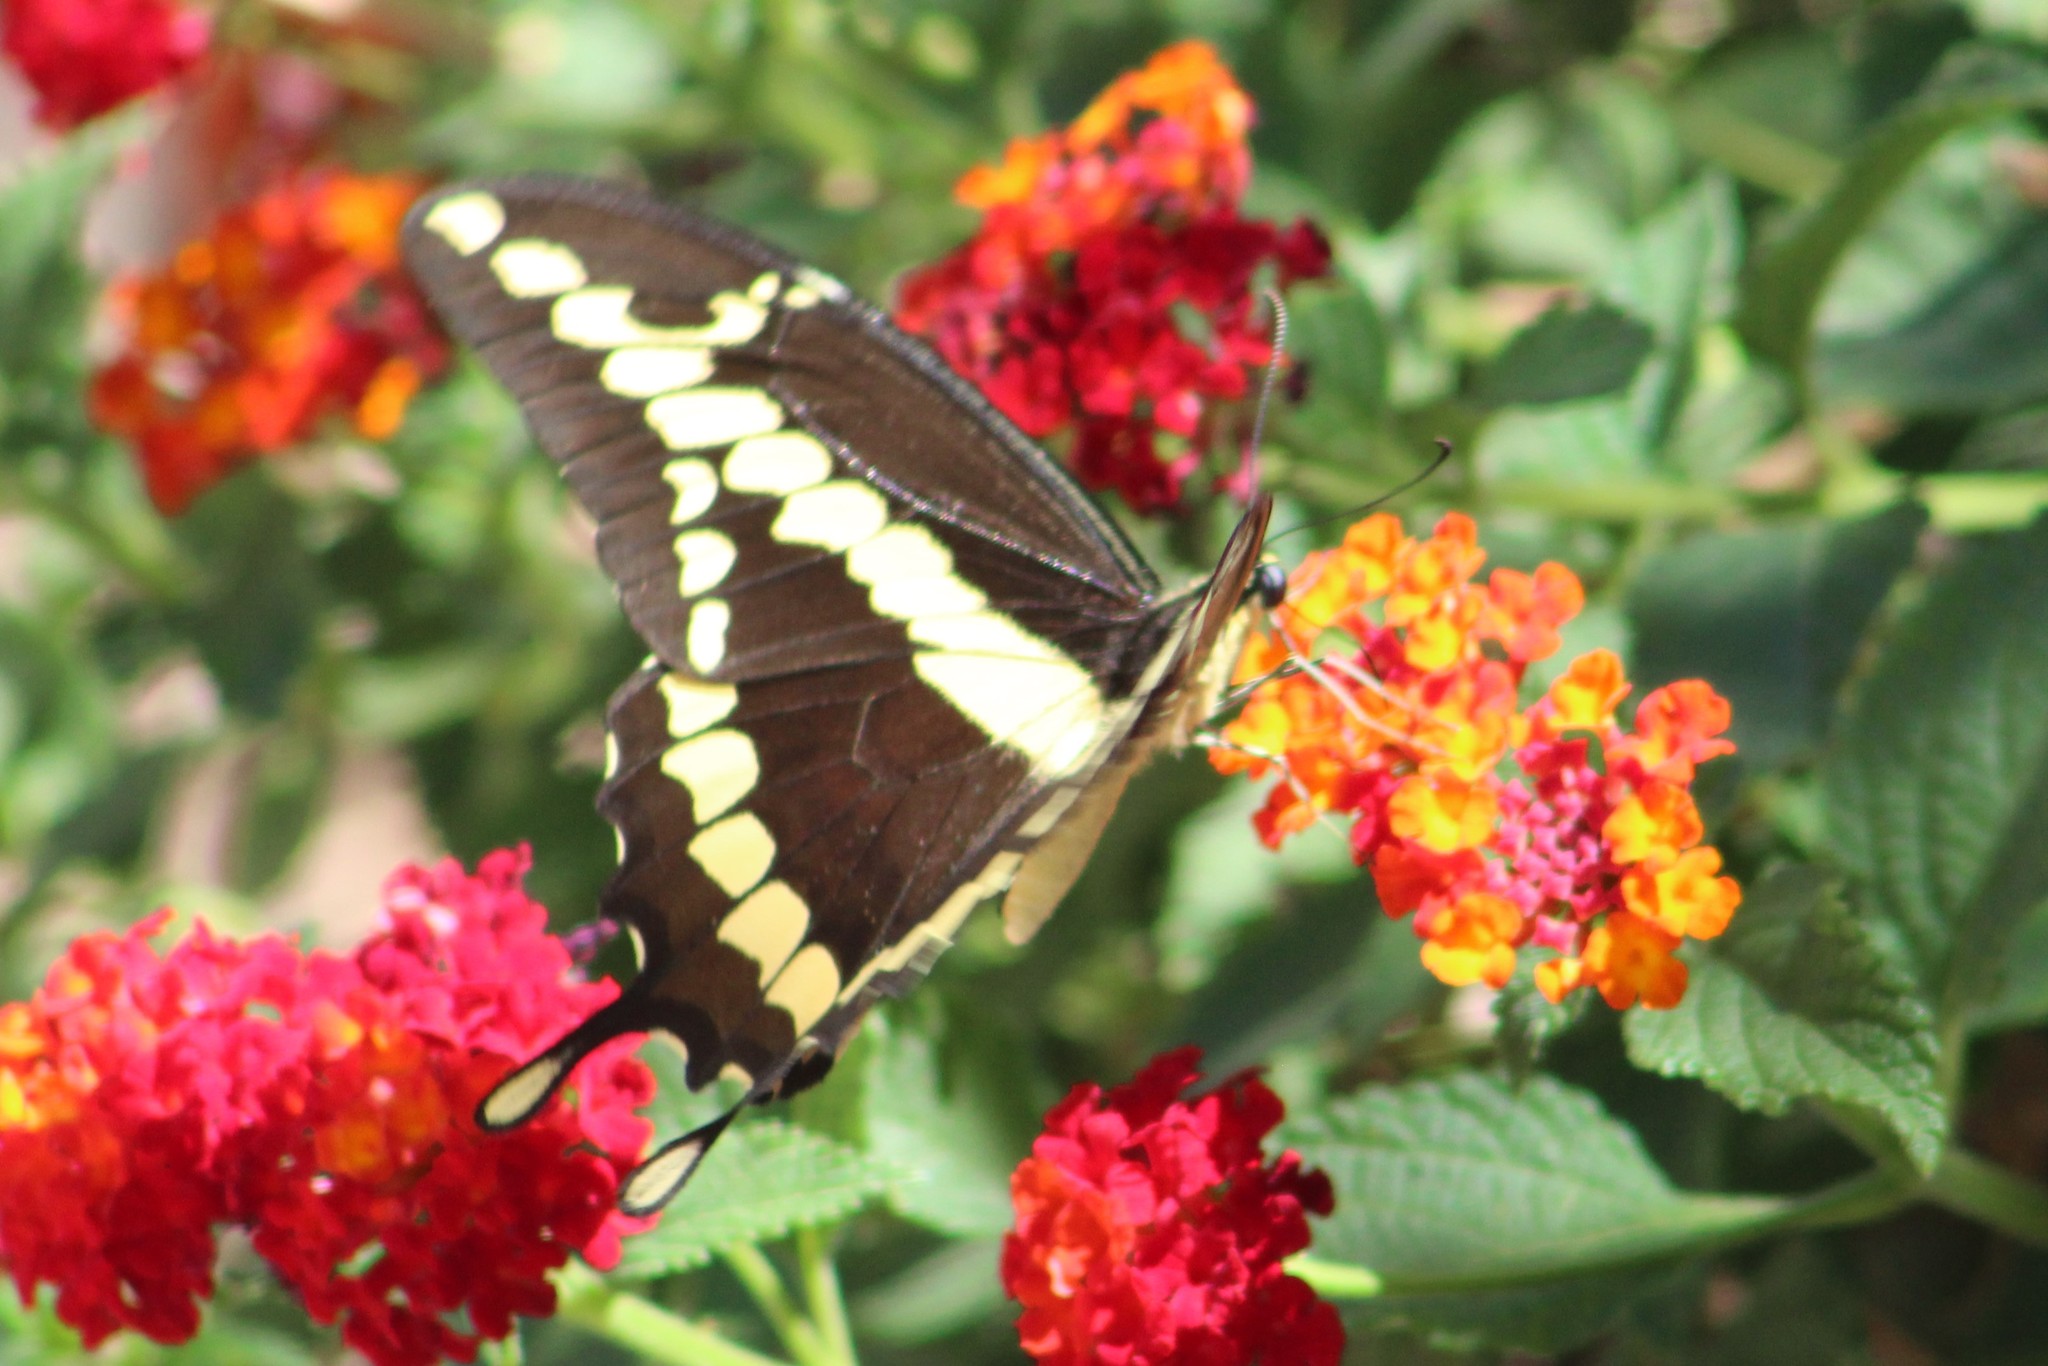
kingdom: Animalia
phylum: Arthropoda
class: Insecta
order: Lepidoptera
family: Papilionidae
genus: Papilio
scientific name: Papilio rumiko
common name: Western giant swallowtail
